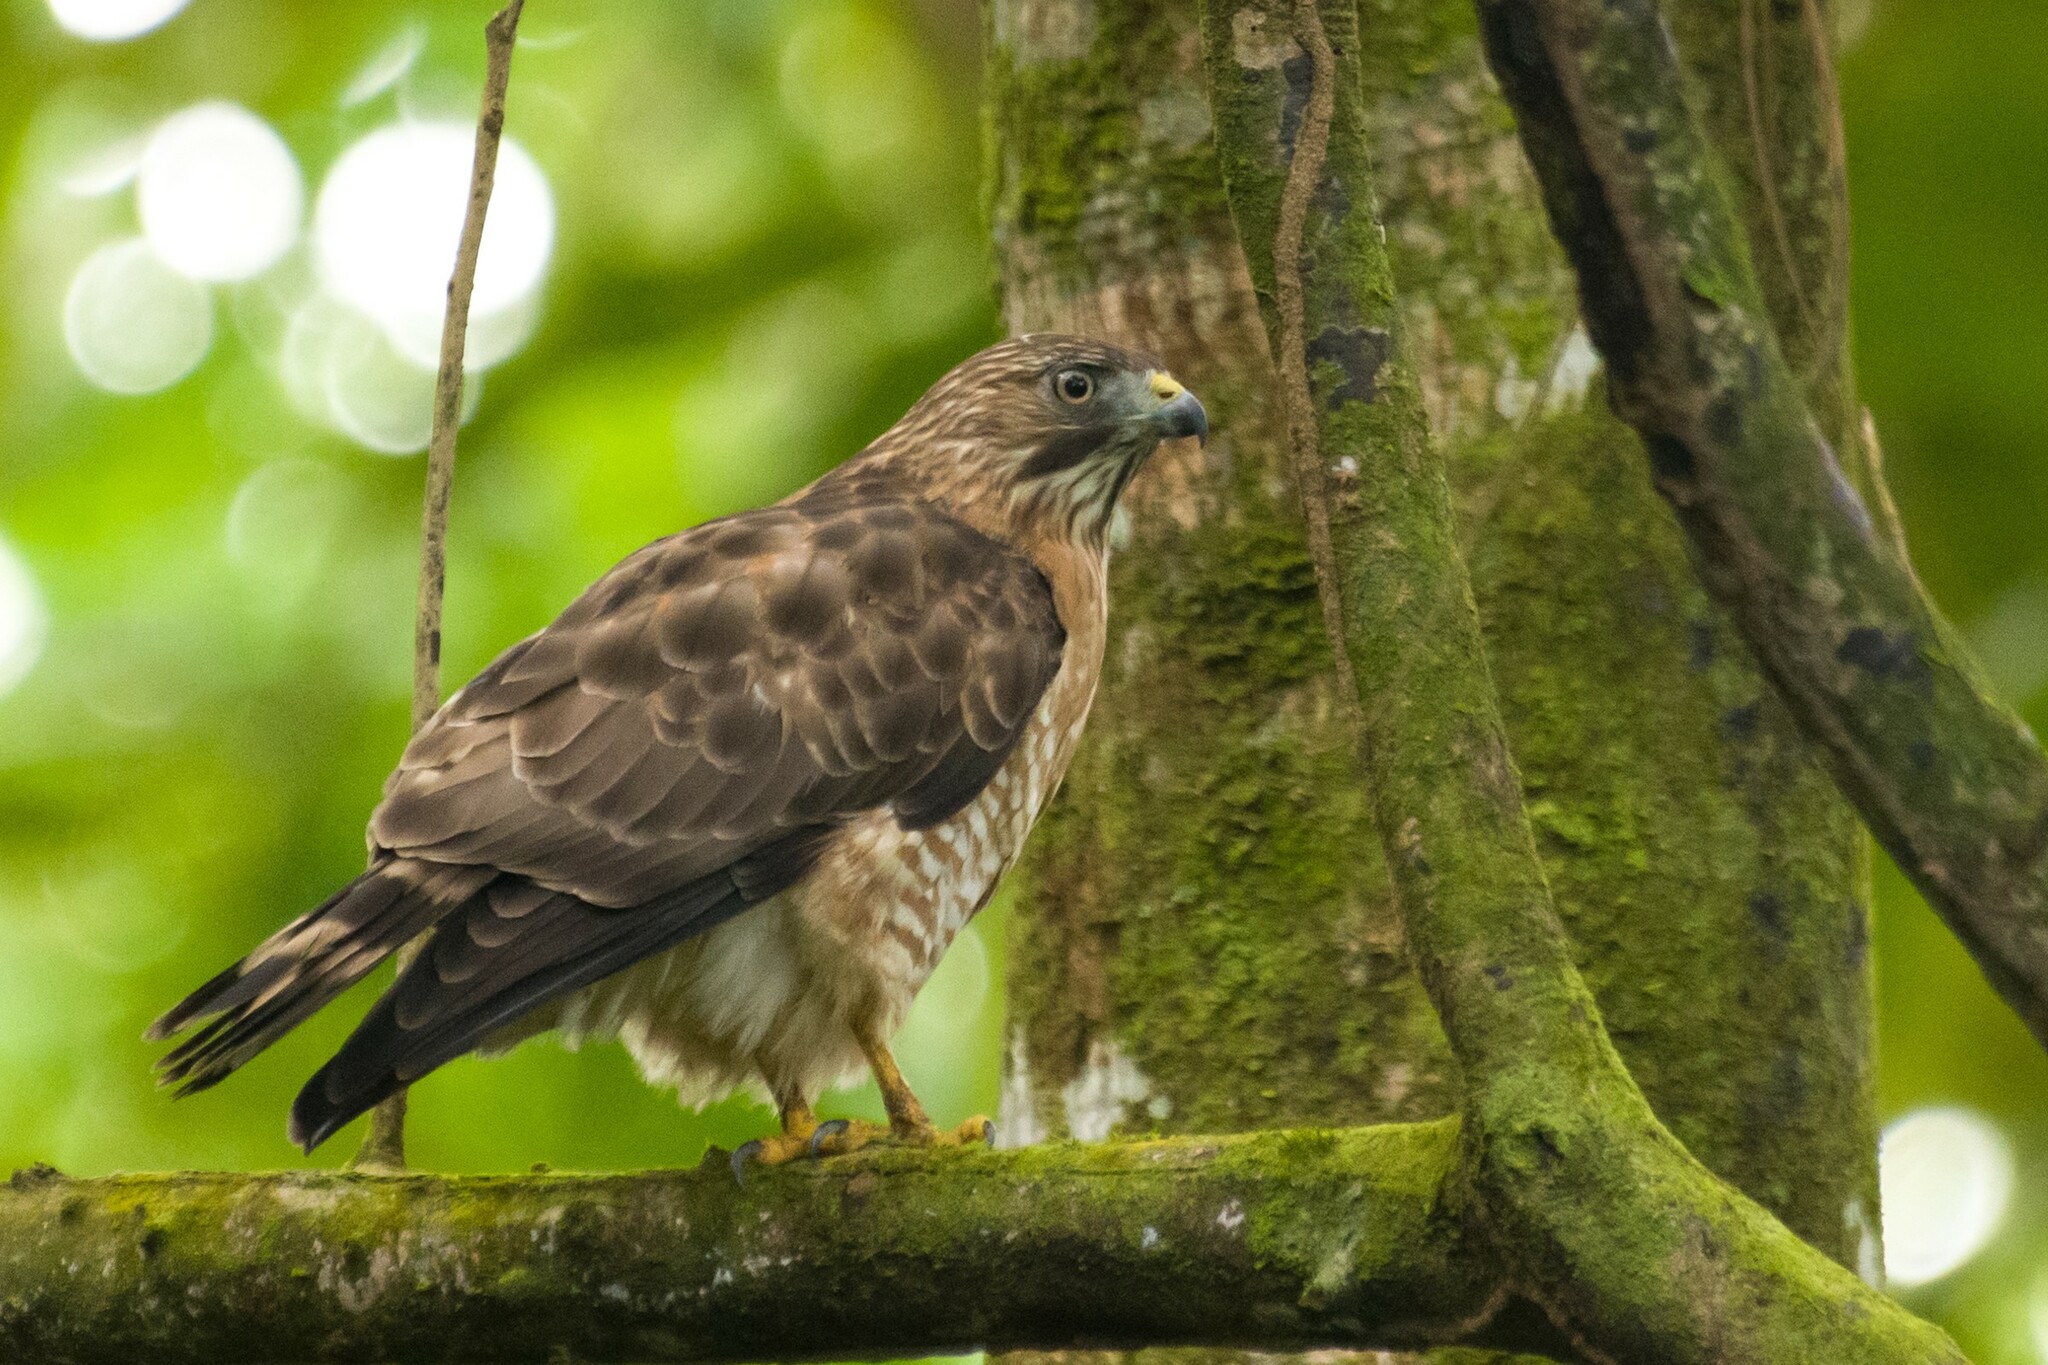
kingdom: Animalia
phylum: Chordata
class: Aves
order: Accipitriformes
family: Accipitridae
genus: Buteo
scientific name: Buteo platypterus
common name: Broad-winged hawk
